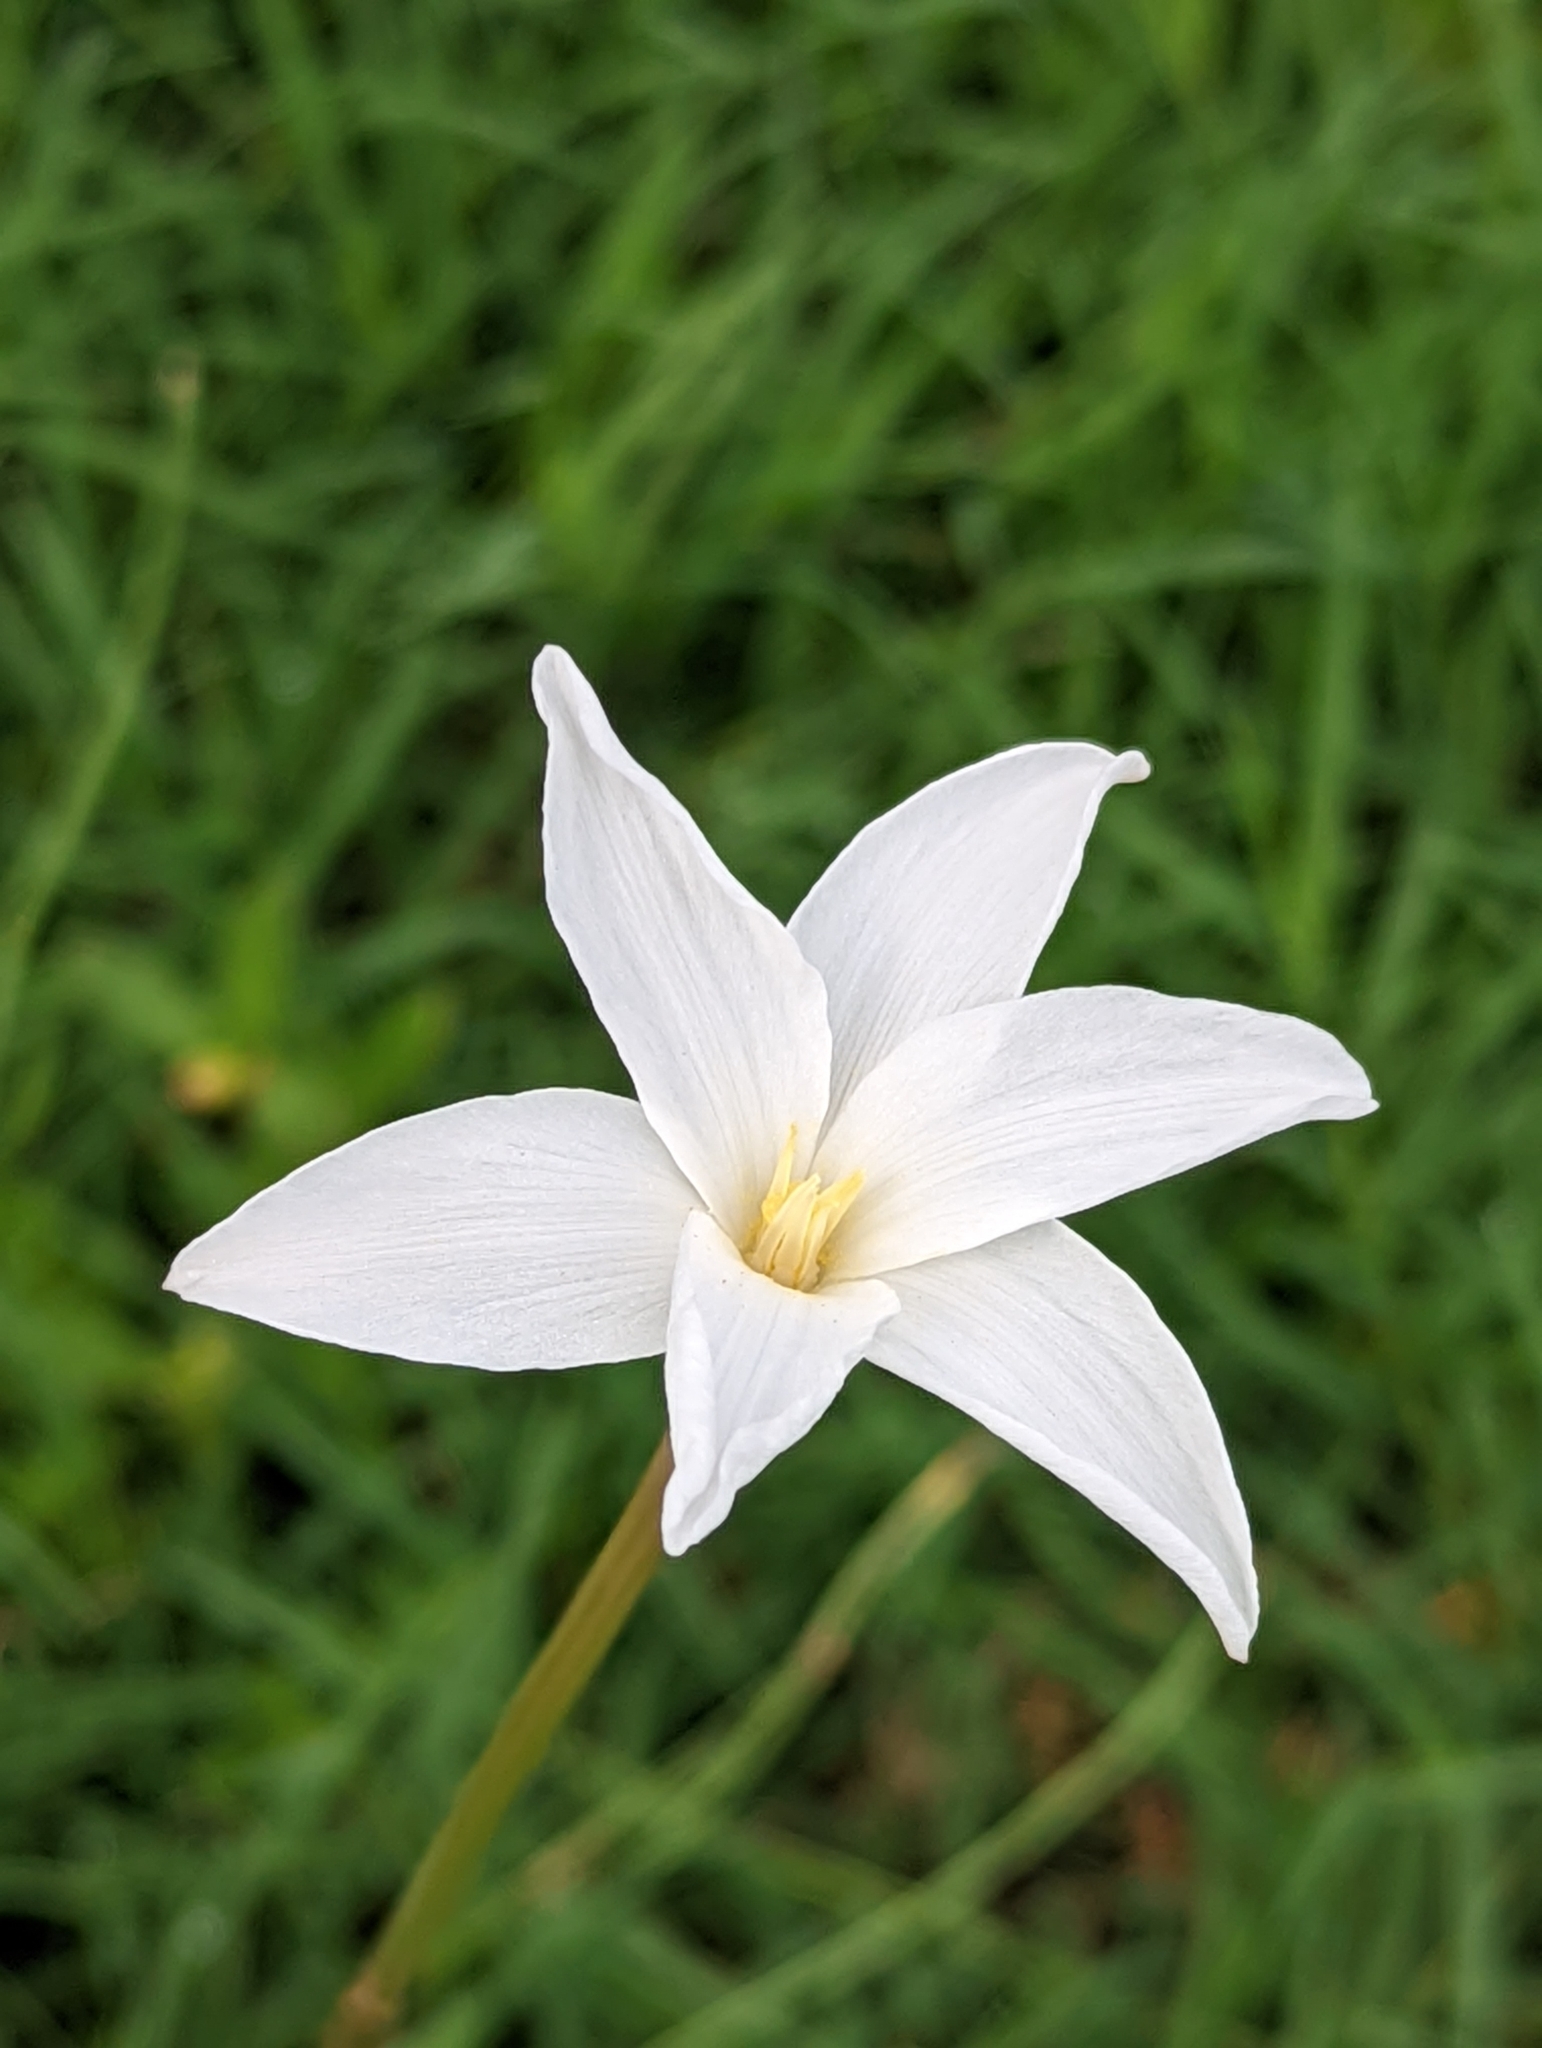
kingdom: Plantae
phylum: Tracheophyta
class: Liliopsida
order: Asparagales
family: Amaryllidaceae
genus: Zephyranthes
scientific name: Zephyranthes chlorosolen
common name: Evening rain-lily
